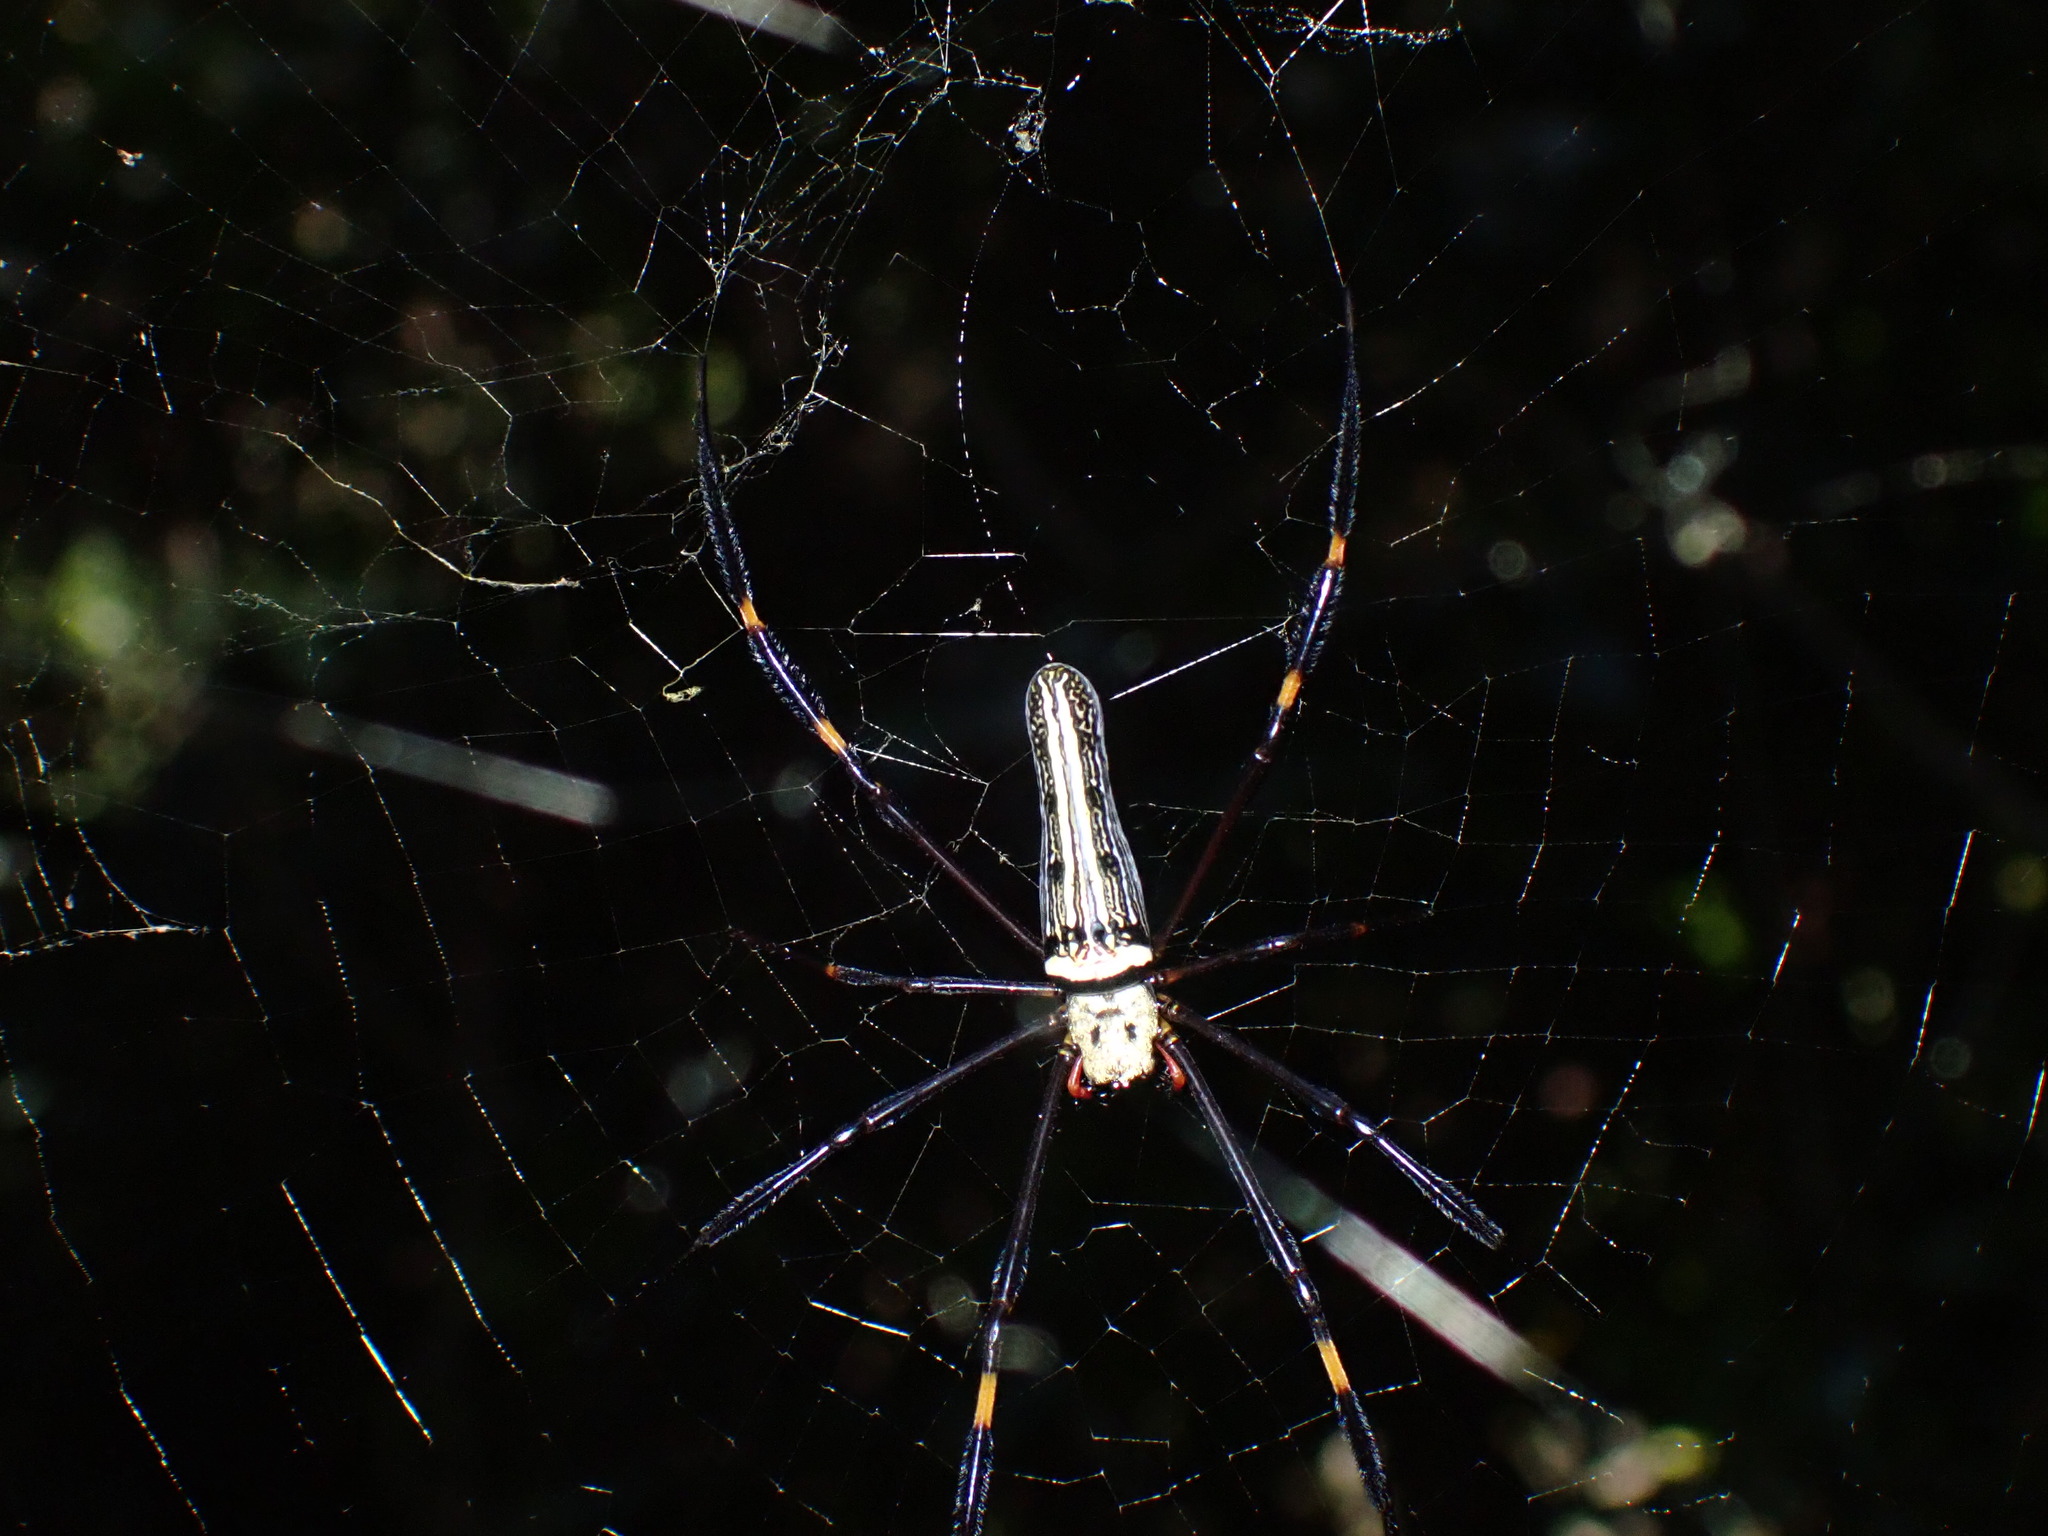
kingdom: Animalia
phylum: Arthropoda
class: Arachnida
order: Araneae
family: Araneidae
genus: Nephila
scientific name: Nephila pilipes
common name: Giant golden orb weaver
